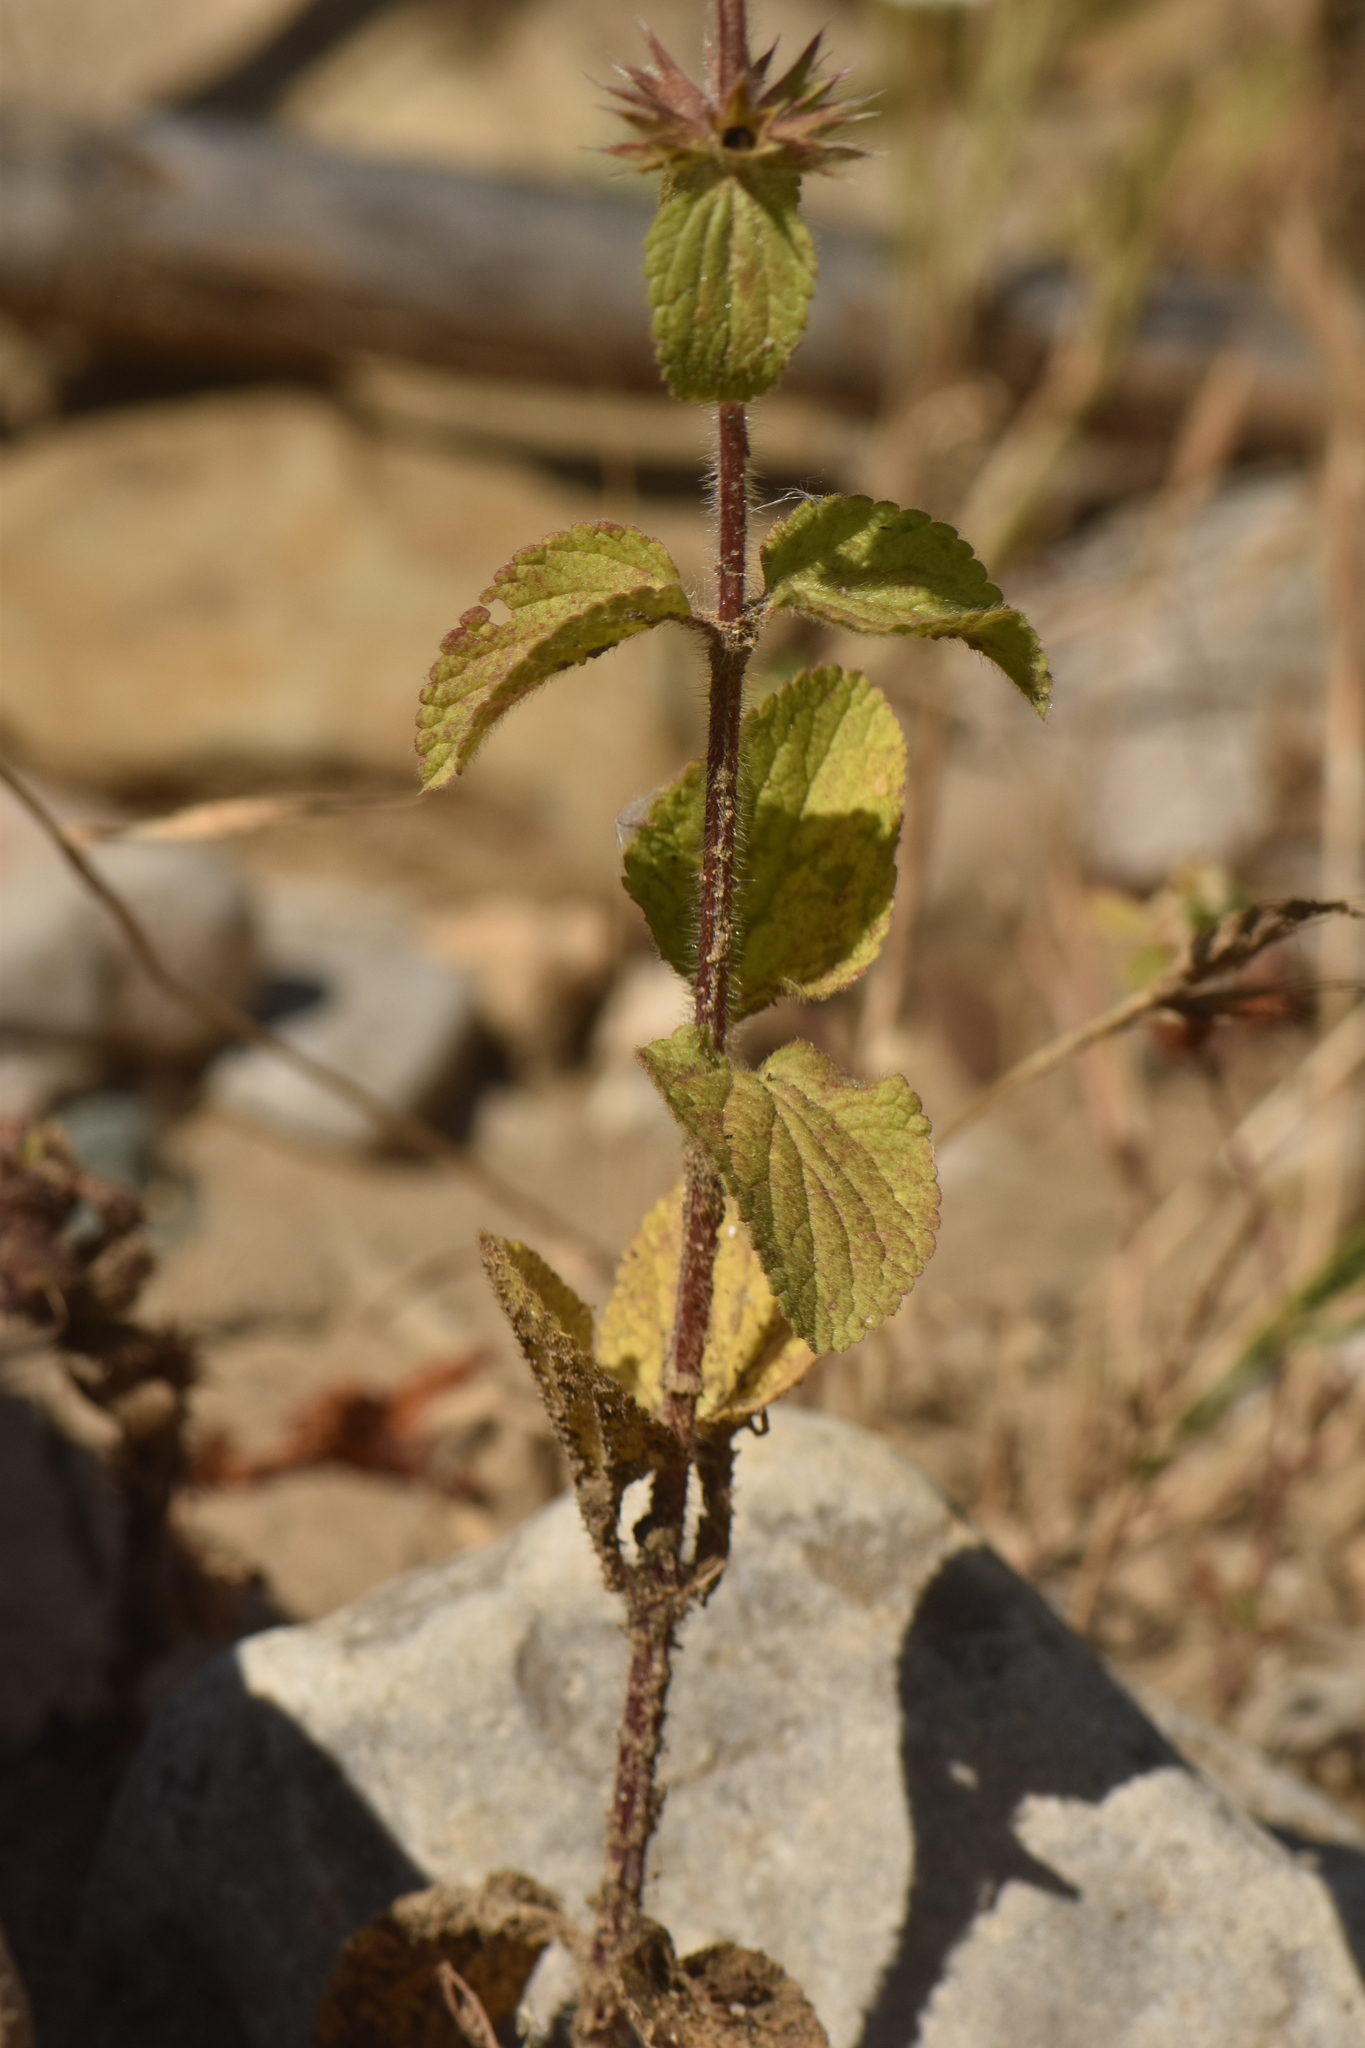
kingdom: Plantae
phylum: Tracheophyta
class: Magnoliopsida
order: Lamiales
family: Lamiaceae
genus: Stachys
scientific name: Stachys ocymastrum
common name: Italian hedgenettle
